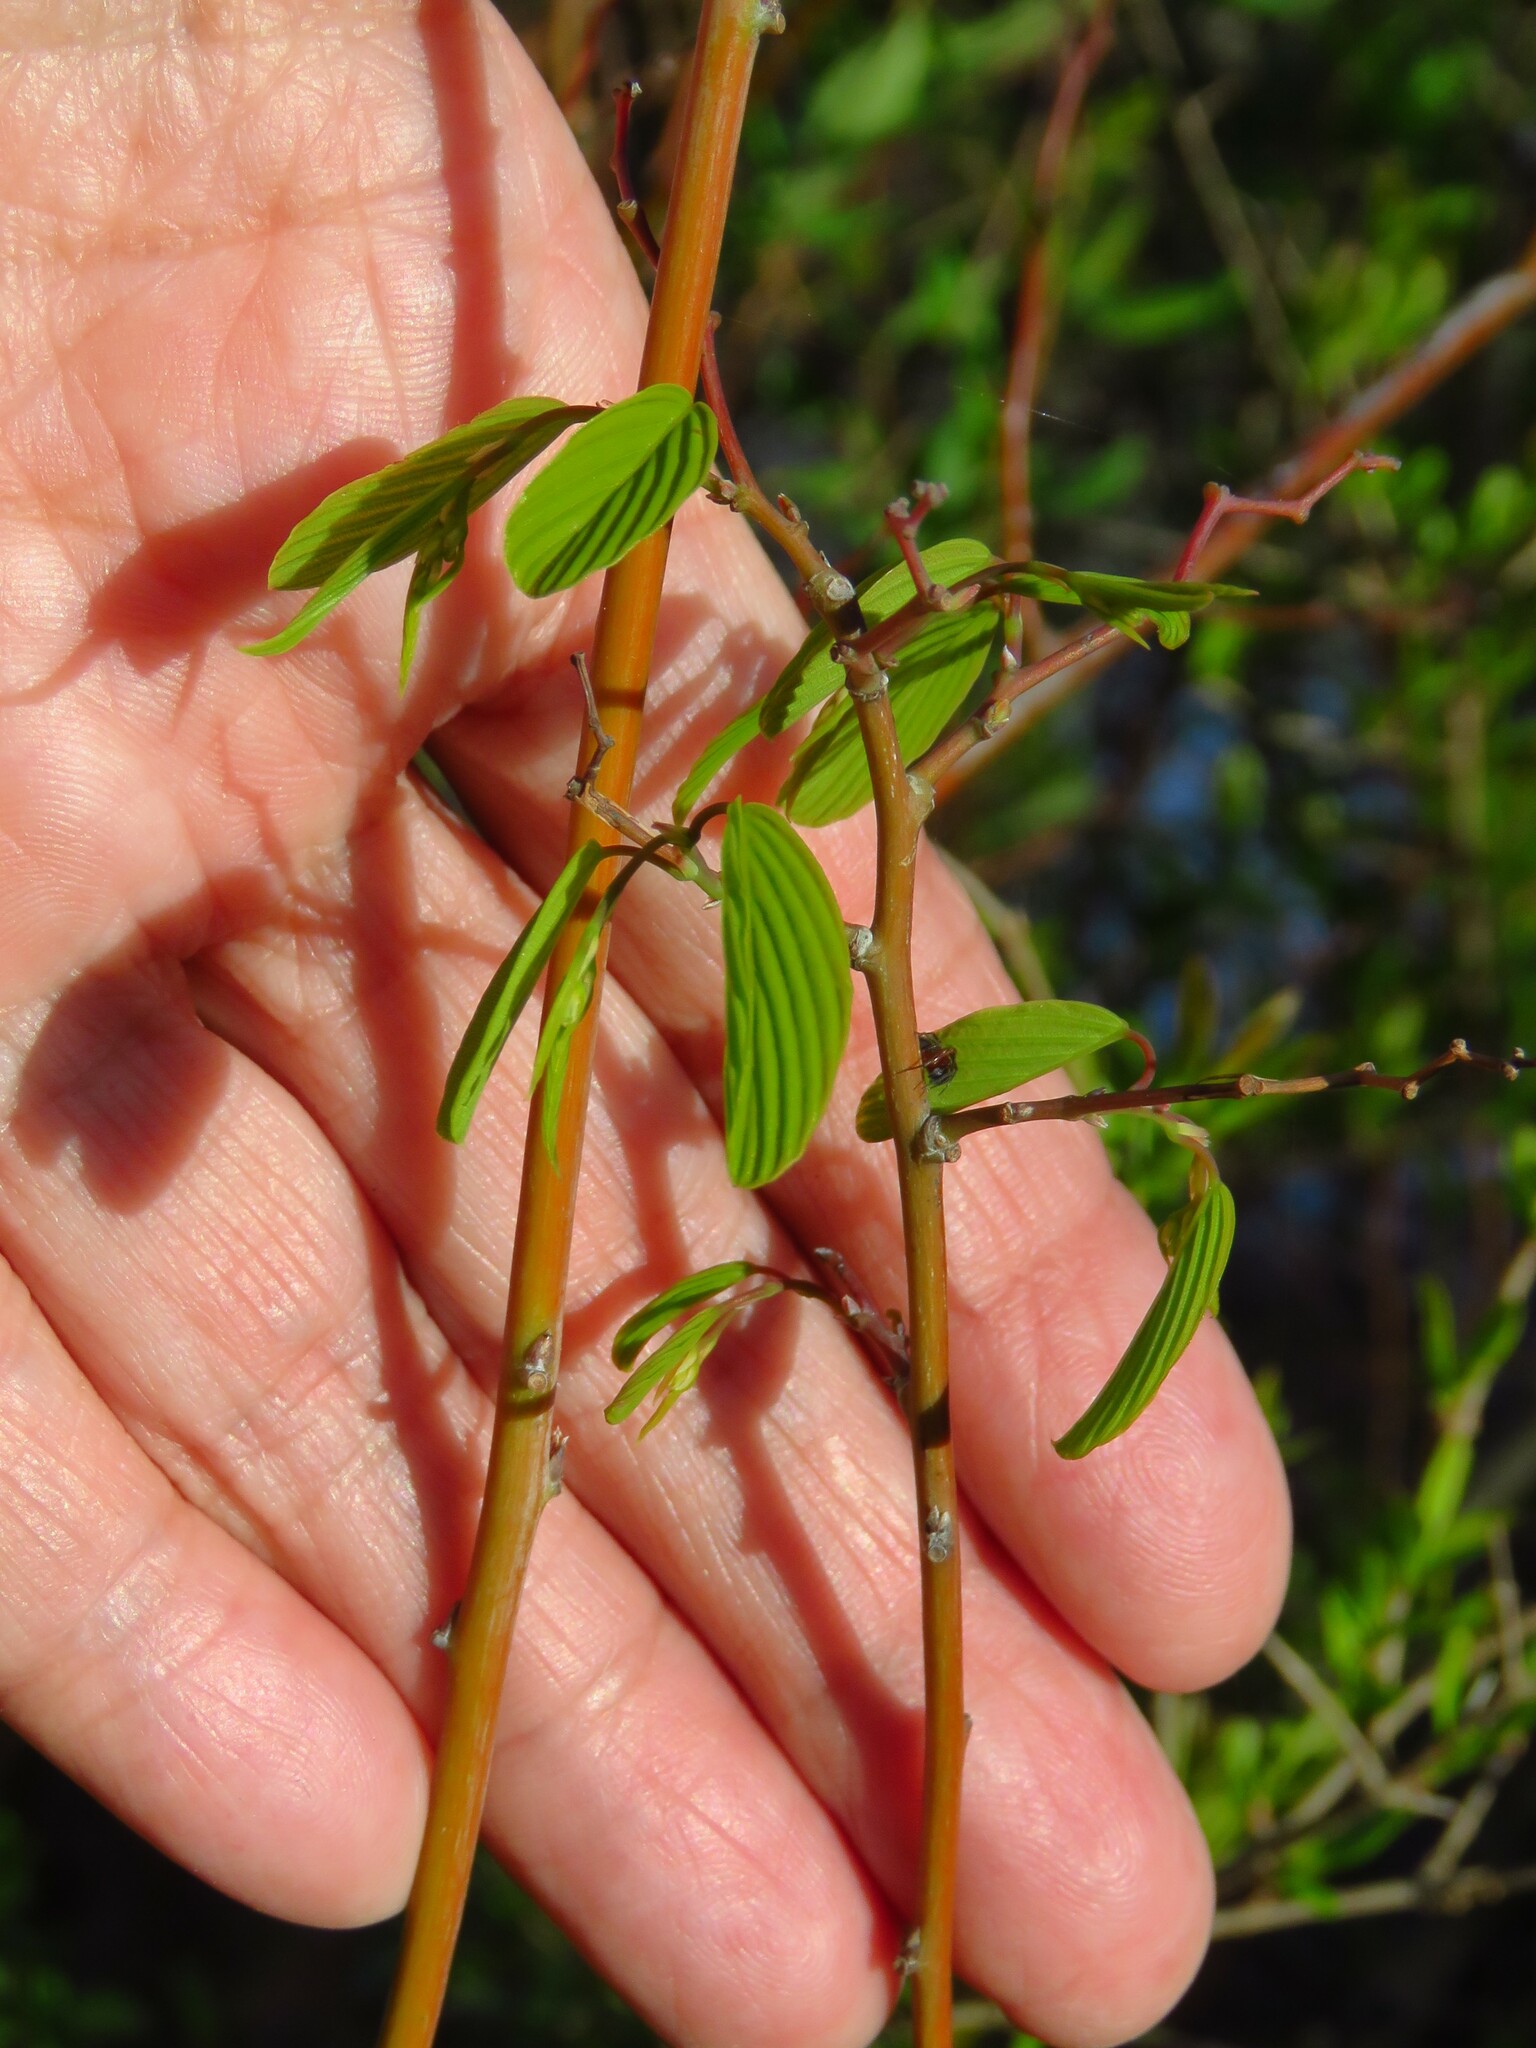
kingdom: Plantae
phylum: Tracheophyta
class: Magnoliopsida
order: Rosales
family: Rhamnaceae
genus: Berchemia
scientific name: Berchemia scandens
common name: Supplejack
